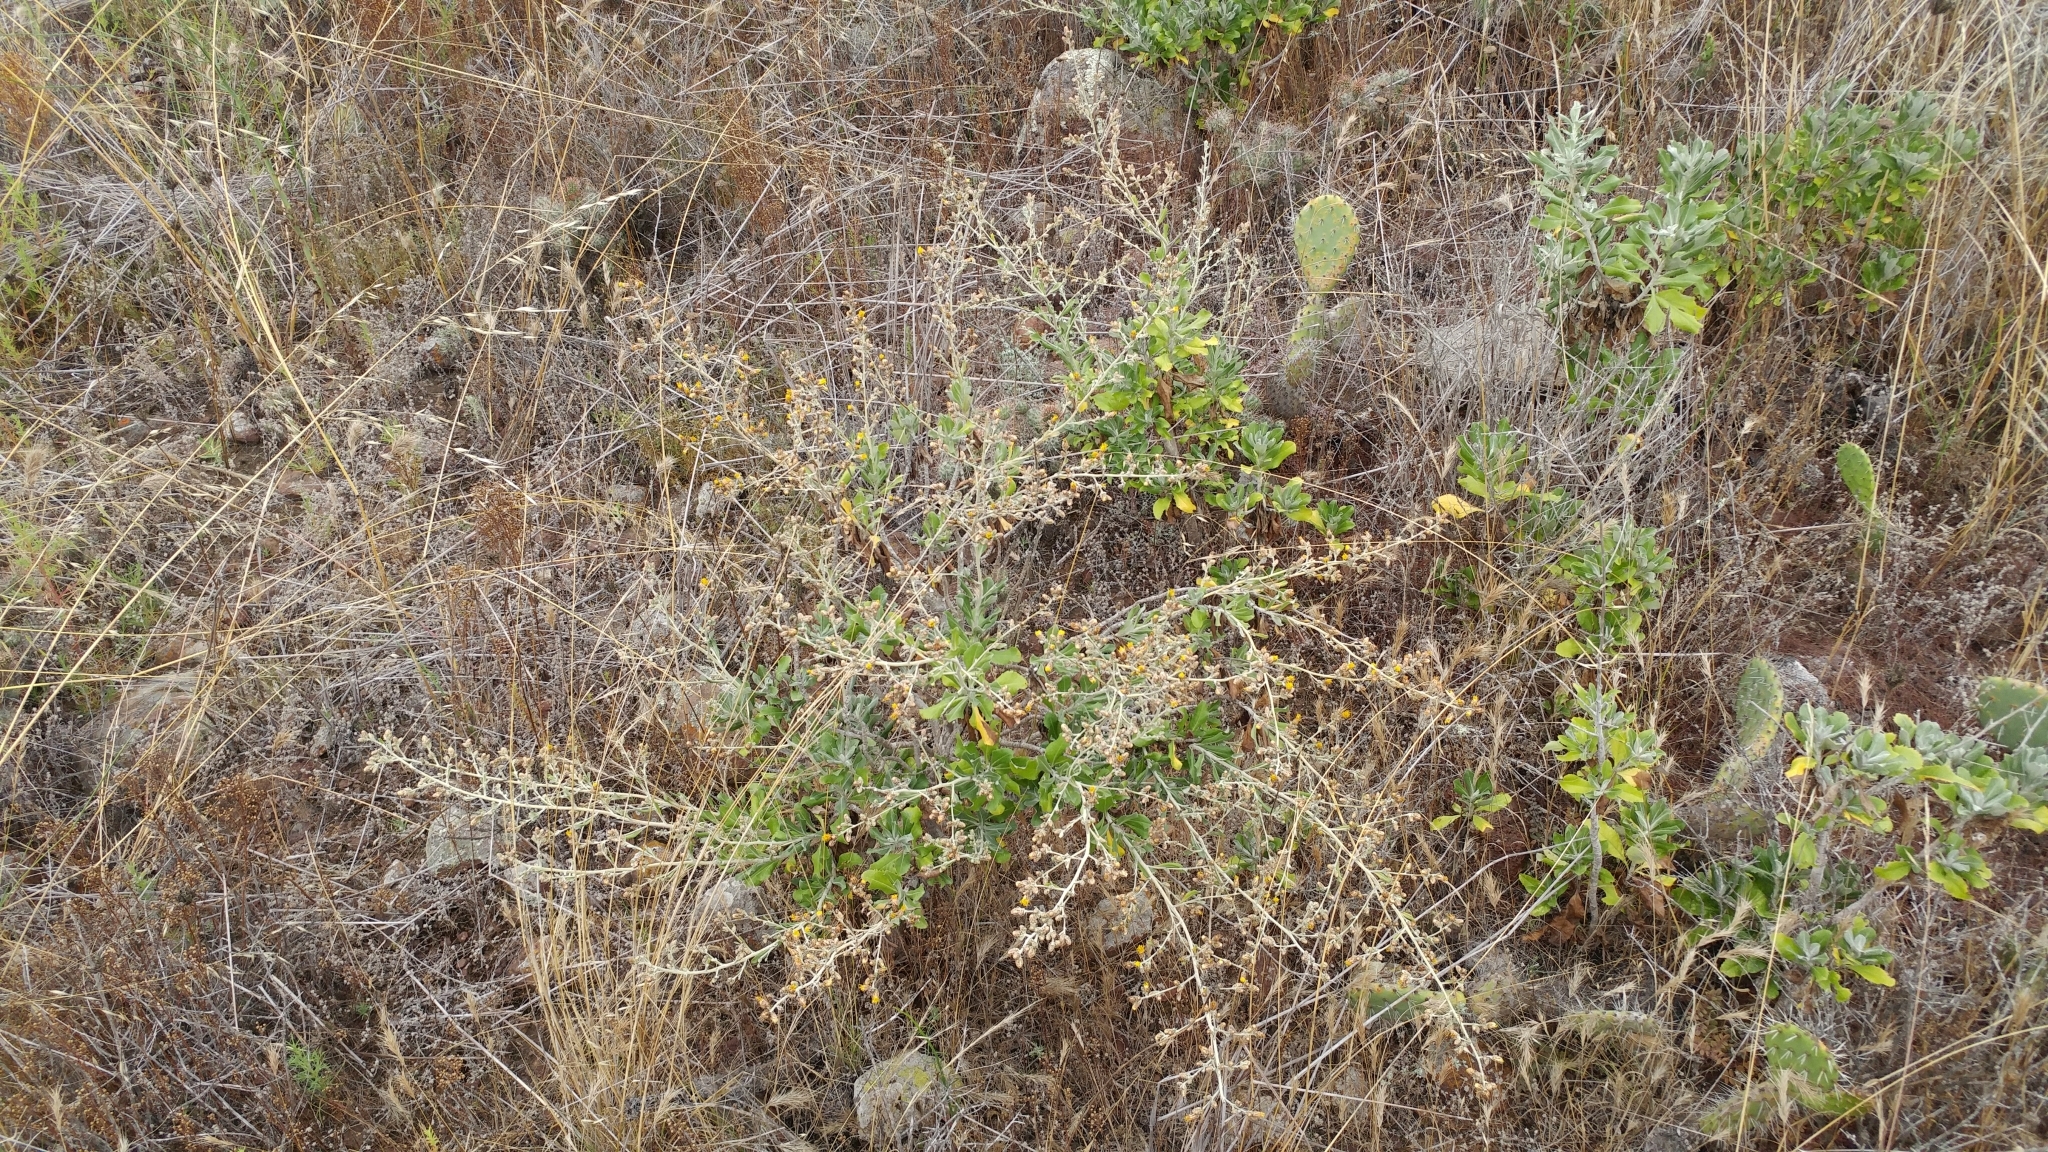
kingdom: Plantae
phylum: Tracheophyta
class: Magnoliopsida
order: Asterales
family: Asteraceae
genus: Hazardia
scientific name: Hazardia cana
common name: San clemente island bristleweed
